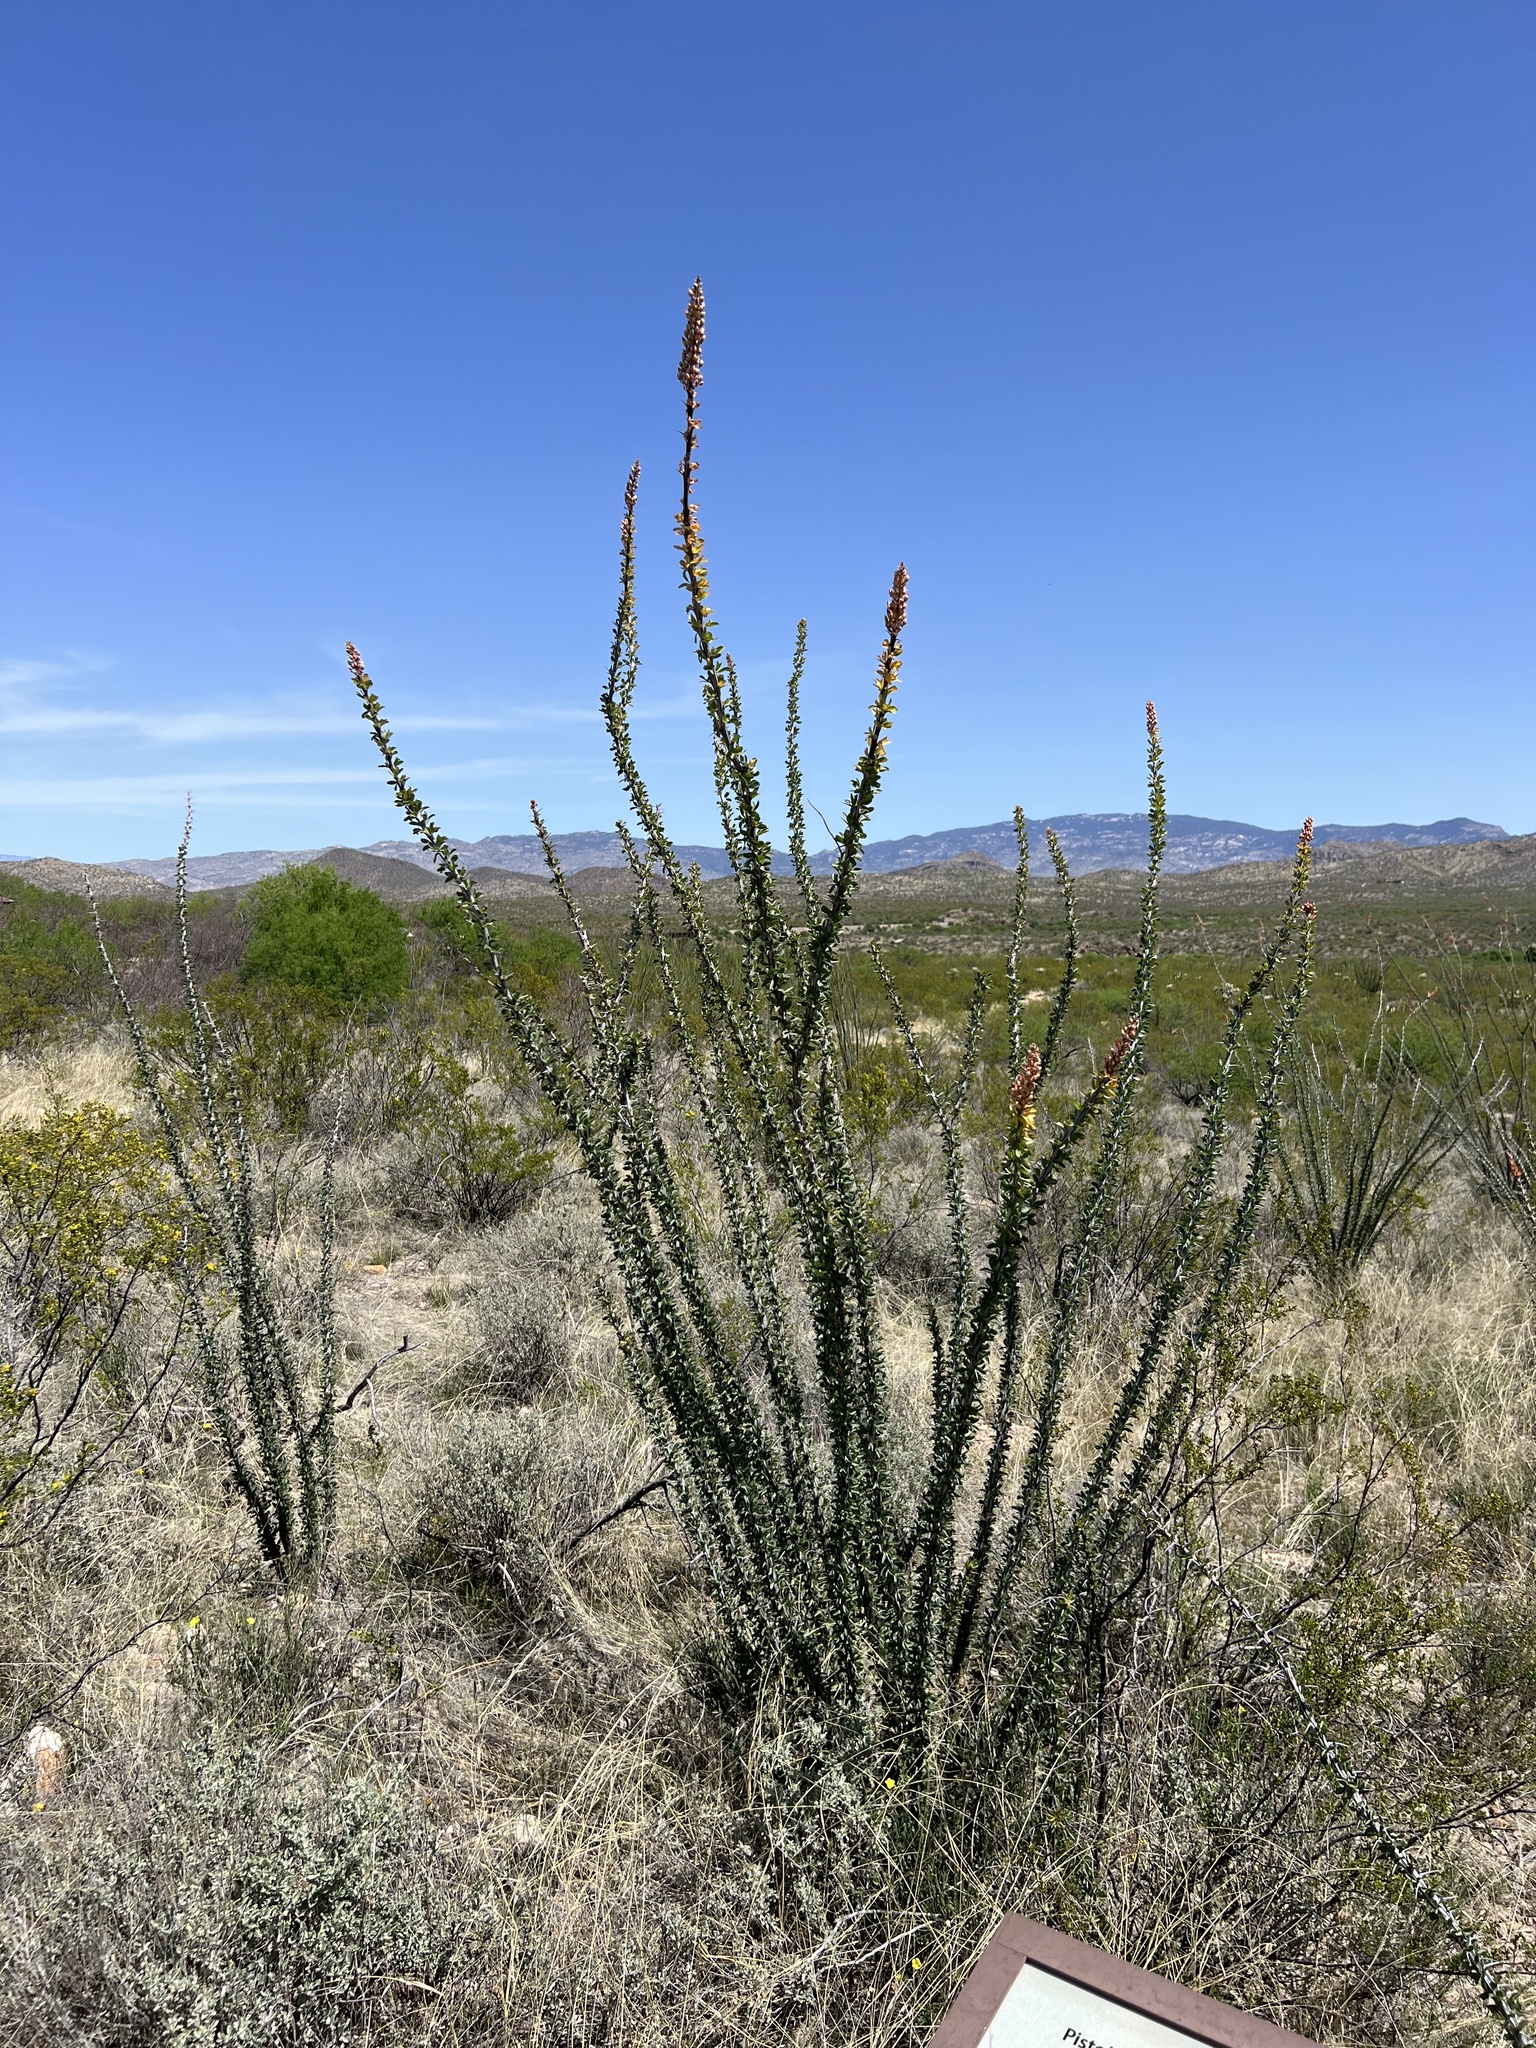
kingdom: Plantae
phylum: Tracheophyta
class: Magnoliopsida
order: Ericales
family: Fouquieriaceae
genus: Fouquieria
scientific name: Fouquieria splendens
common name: Vine-cactus
